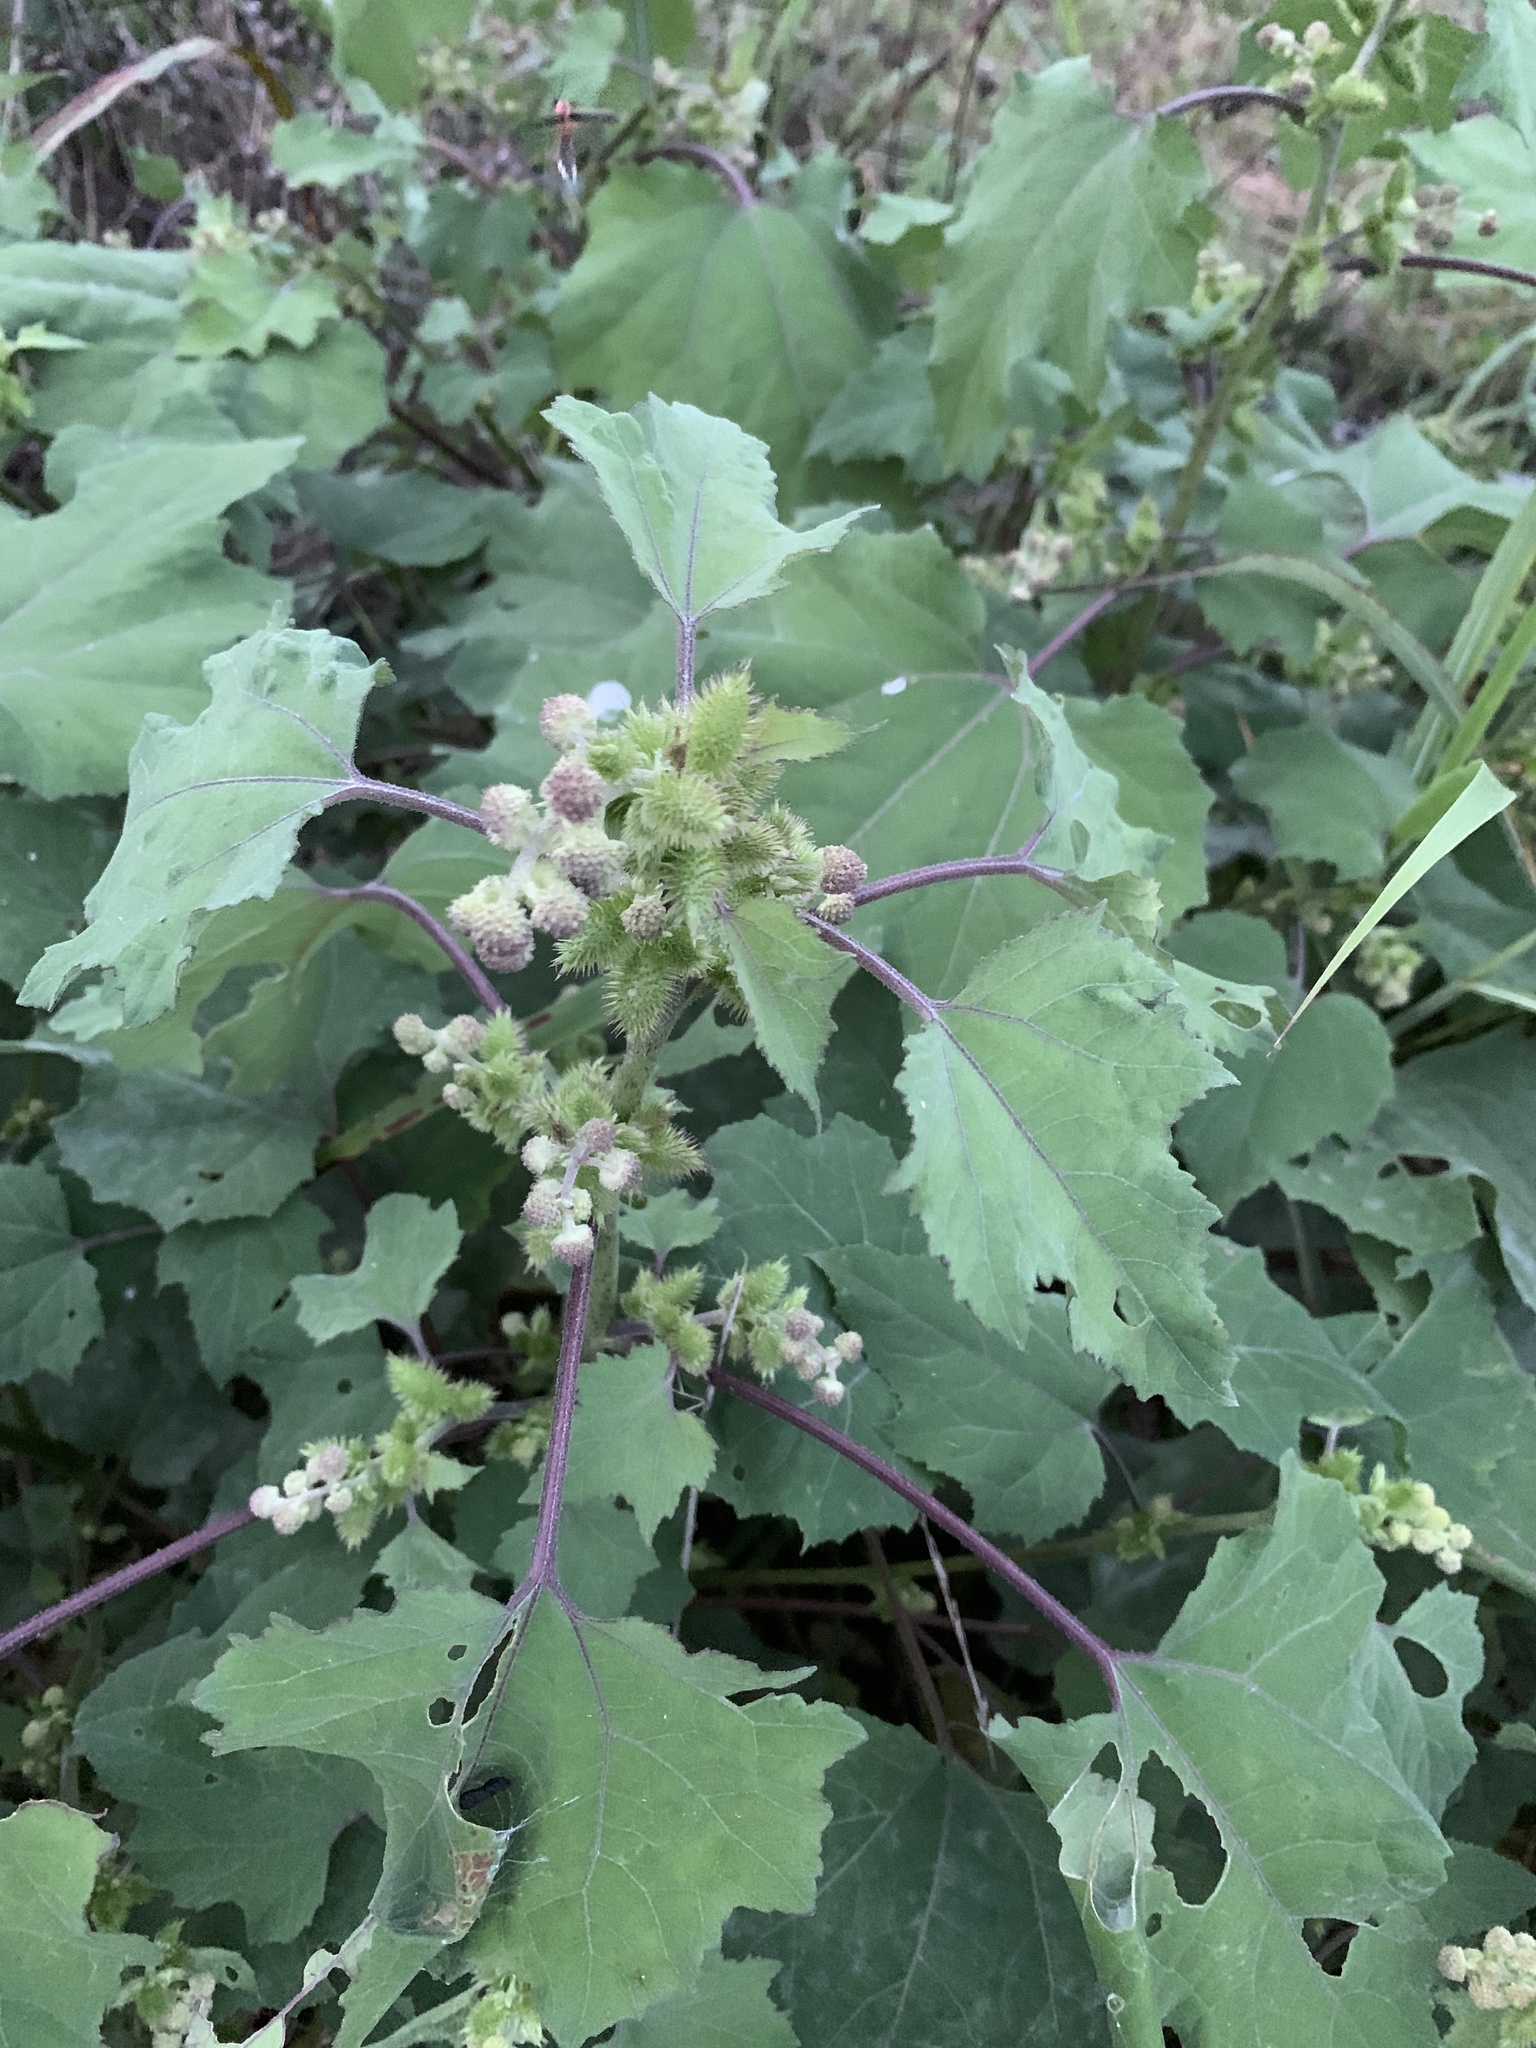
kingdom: Plantae
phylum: Tracheophyta
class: Magnoliopsida
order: Asterales
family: Asteraceae
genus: Xanthium
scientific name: Xanthium strumarium
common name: Rough cocklebur
